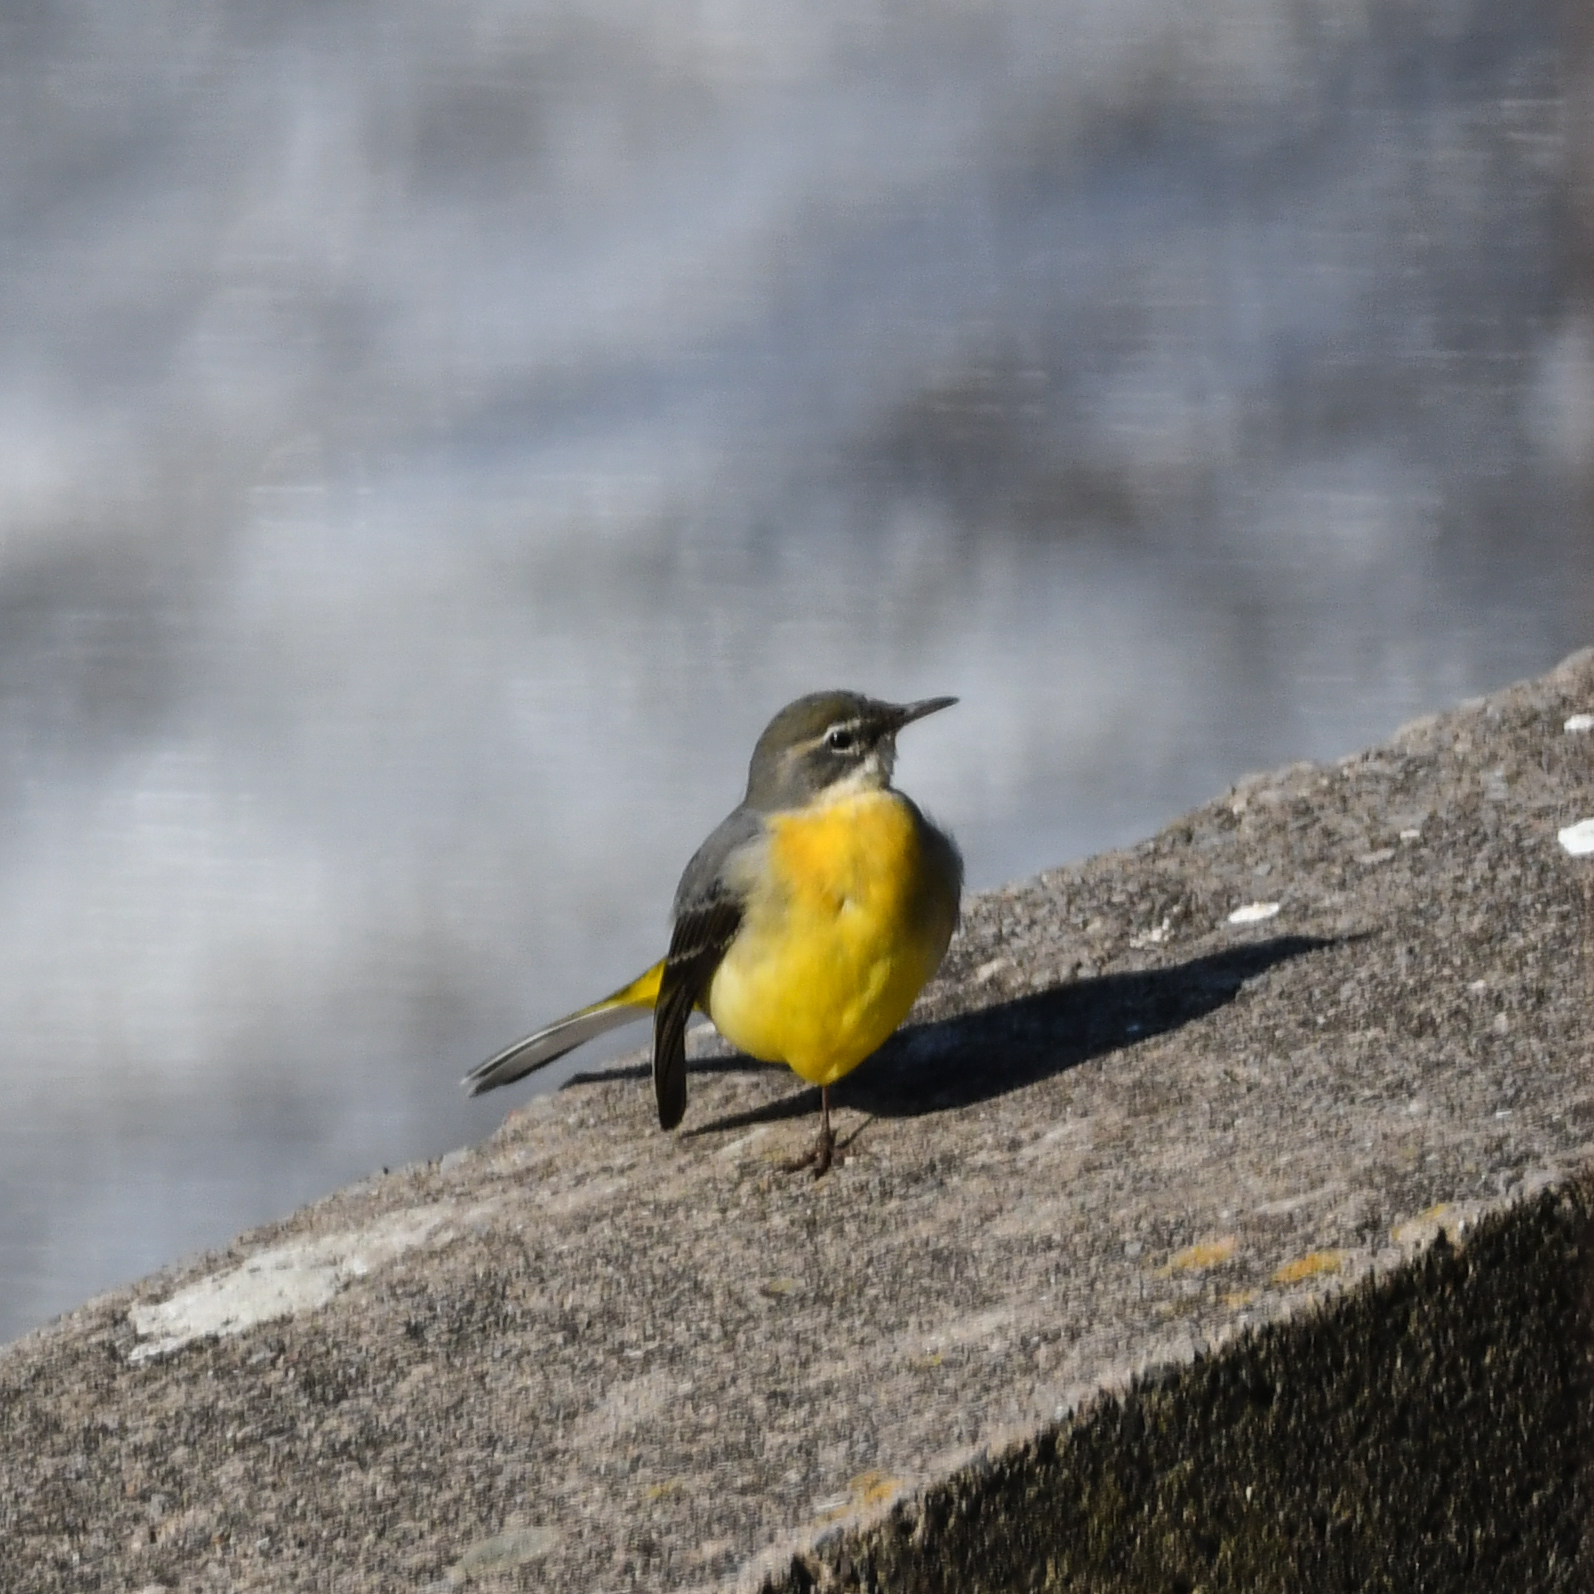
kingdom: Animalia
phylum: Chordata
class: Aves
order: Passeriformes
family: Motacillidae
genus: Motacilla
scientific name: Motacilla cinerea
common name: Grey wagtail
